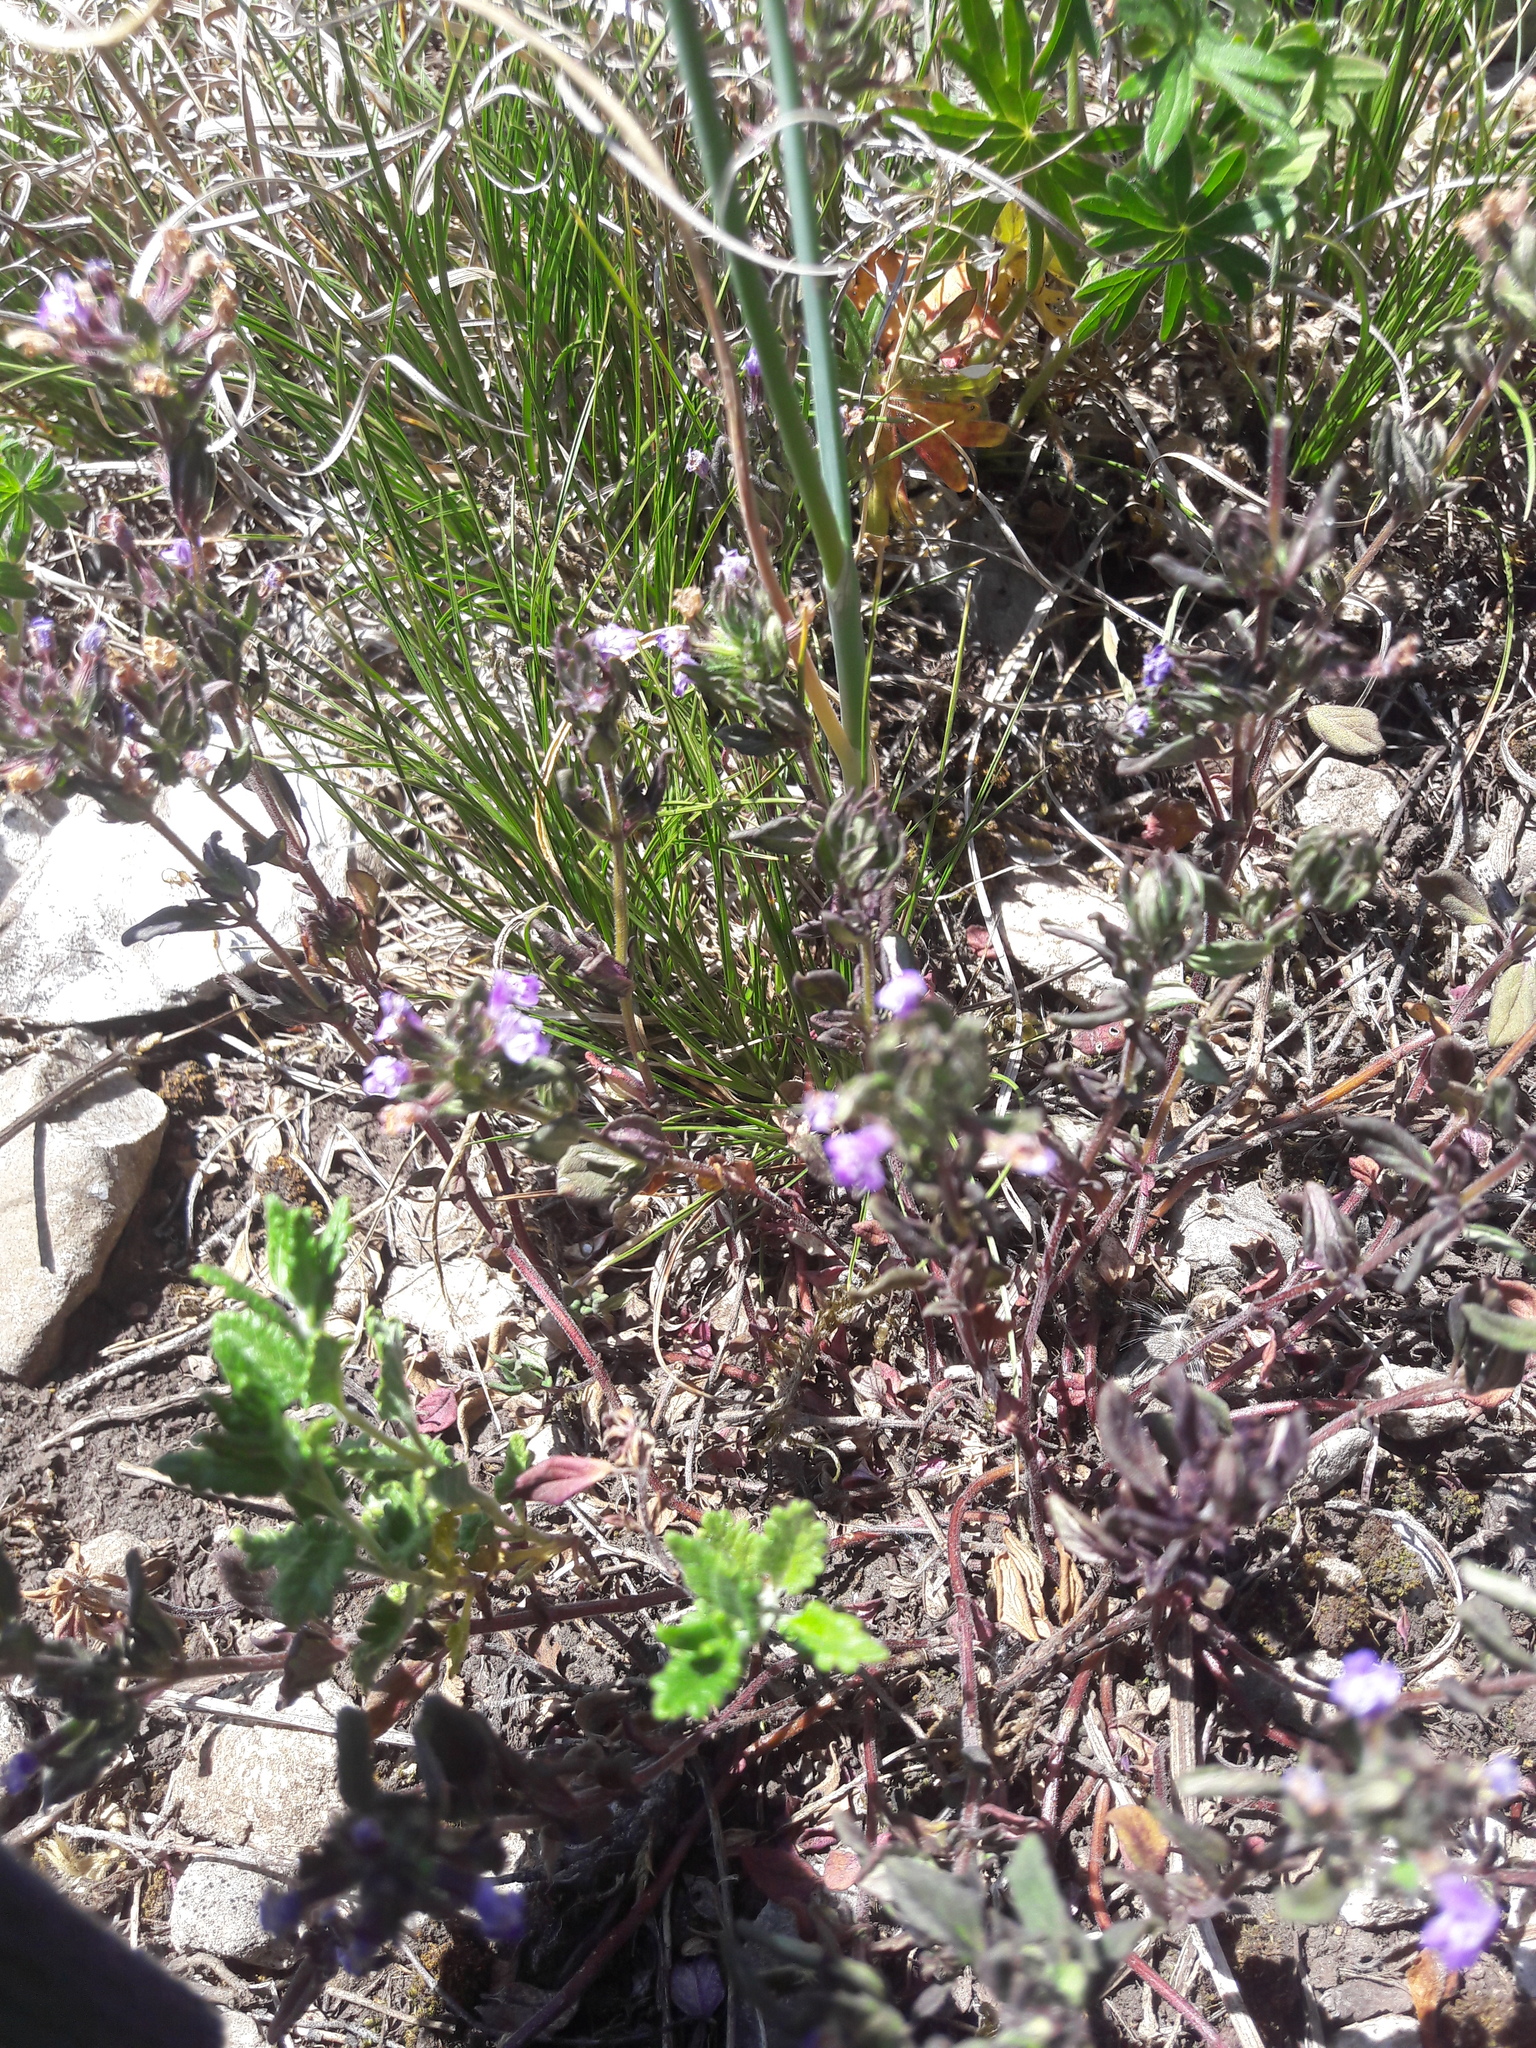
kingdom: Plantae
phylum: Tracheophyta
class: Magnoliopsida
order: Lamiales
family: Lamiaceae
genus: Clinopodium
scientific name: Clinopodium acinos
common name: Basil thyme
